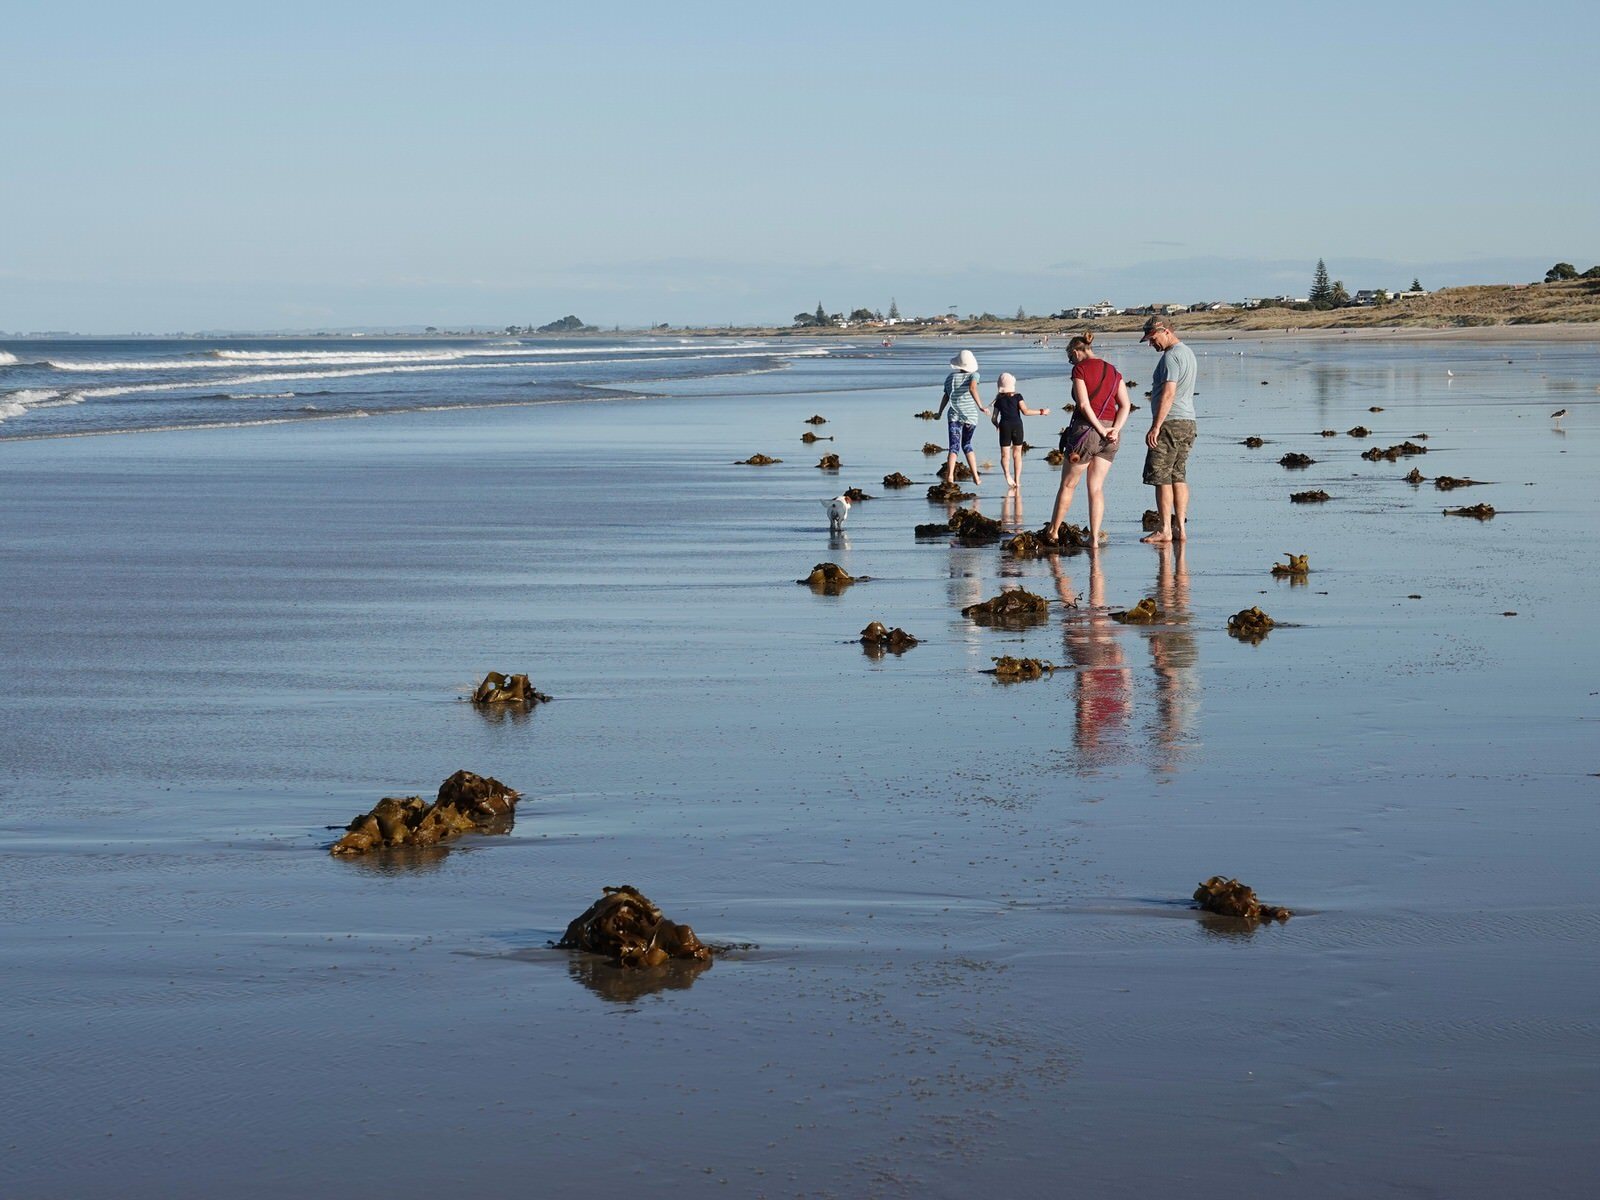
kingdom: Chromista
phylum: Ochrophyta
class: Phaeophyceae
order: Laminariales
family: Lessoniaceae
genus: Ecklonia
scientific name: Ecklonia radiata
